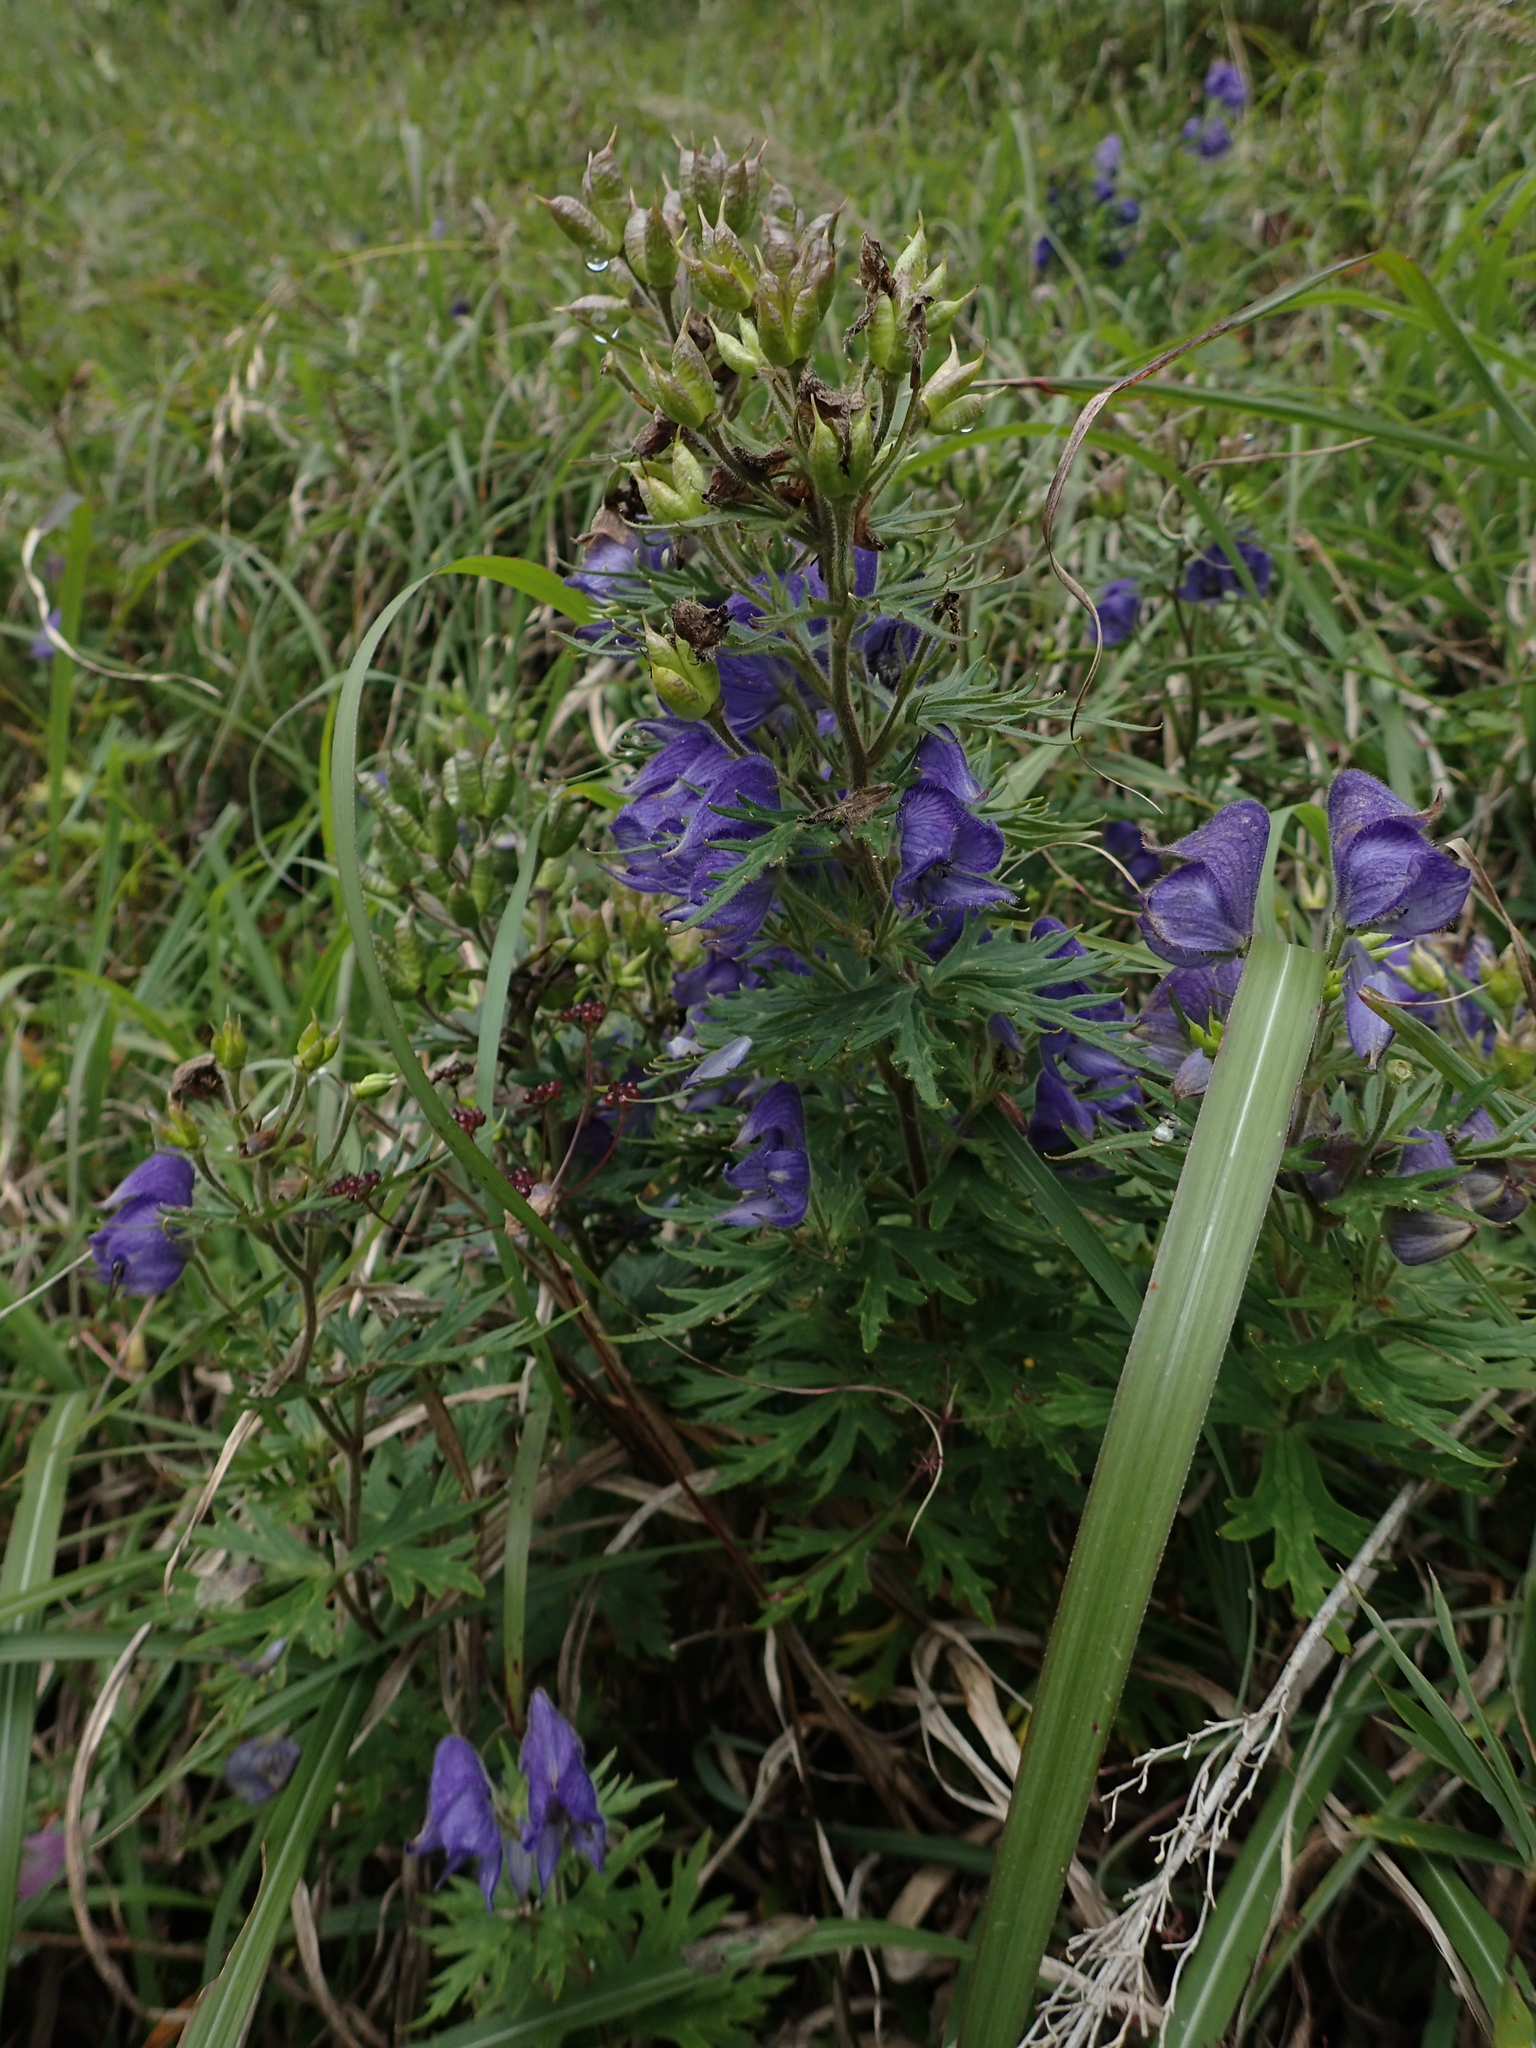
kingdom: Plantae
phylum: Tracheophyta
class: Magnoliopsida
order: Ranunculales
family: Ranunculaceae
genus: Aconitum
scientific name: Aconitum fukutomei
